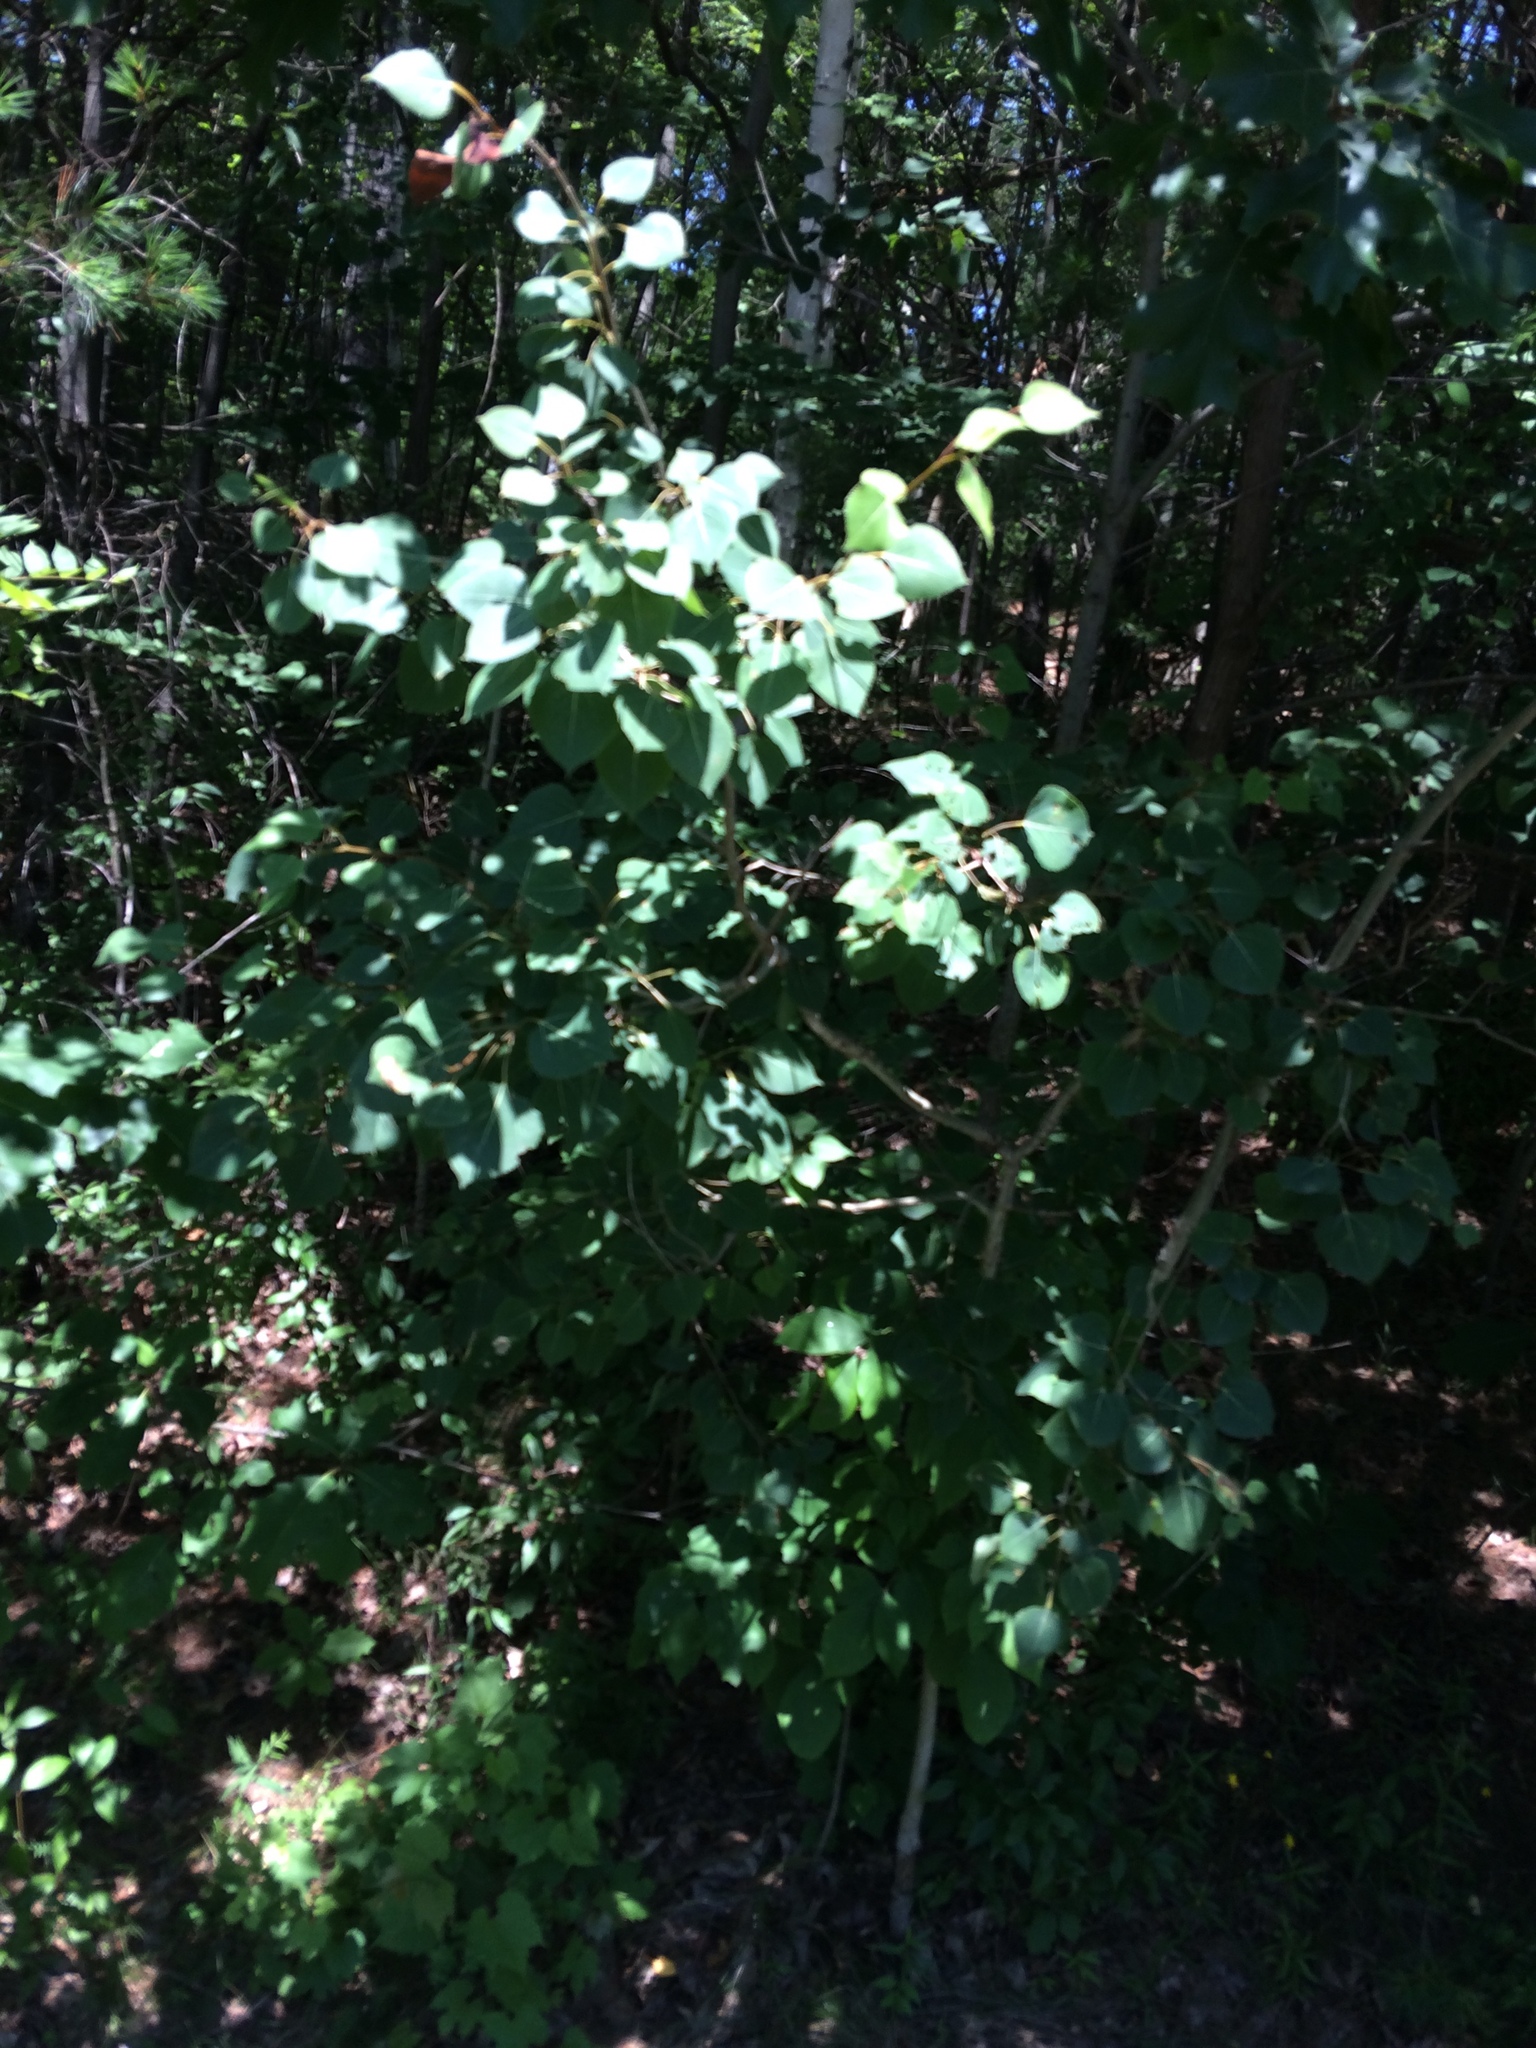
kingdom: Plantae
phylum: Tracheophyta
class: Magnoliopsida
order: Malpighiales
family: Salicaceae
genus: Populus
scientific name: Populus tremuloides
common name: Quaking aspen
